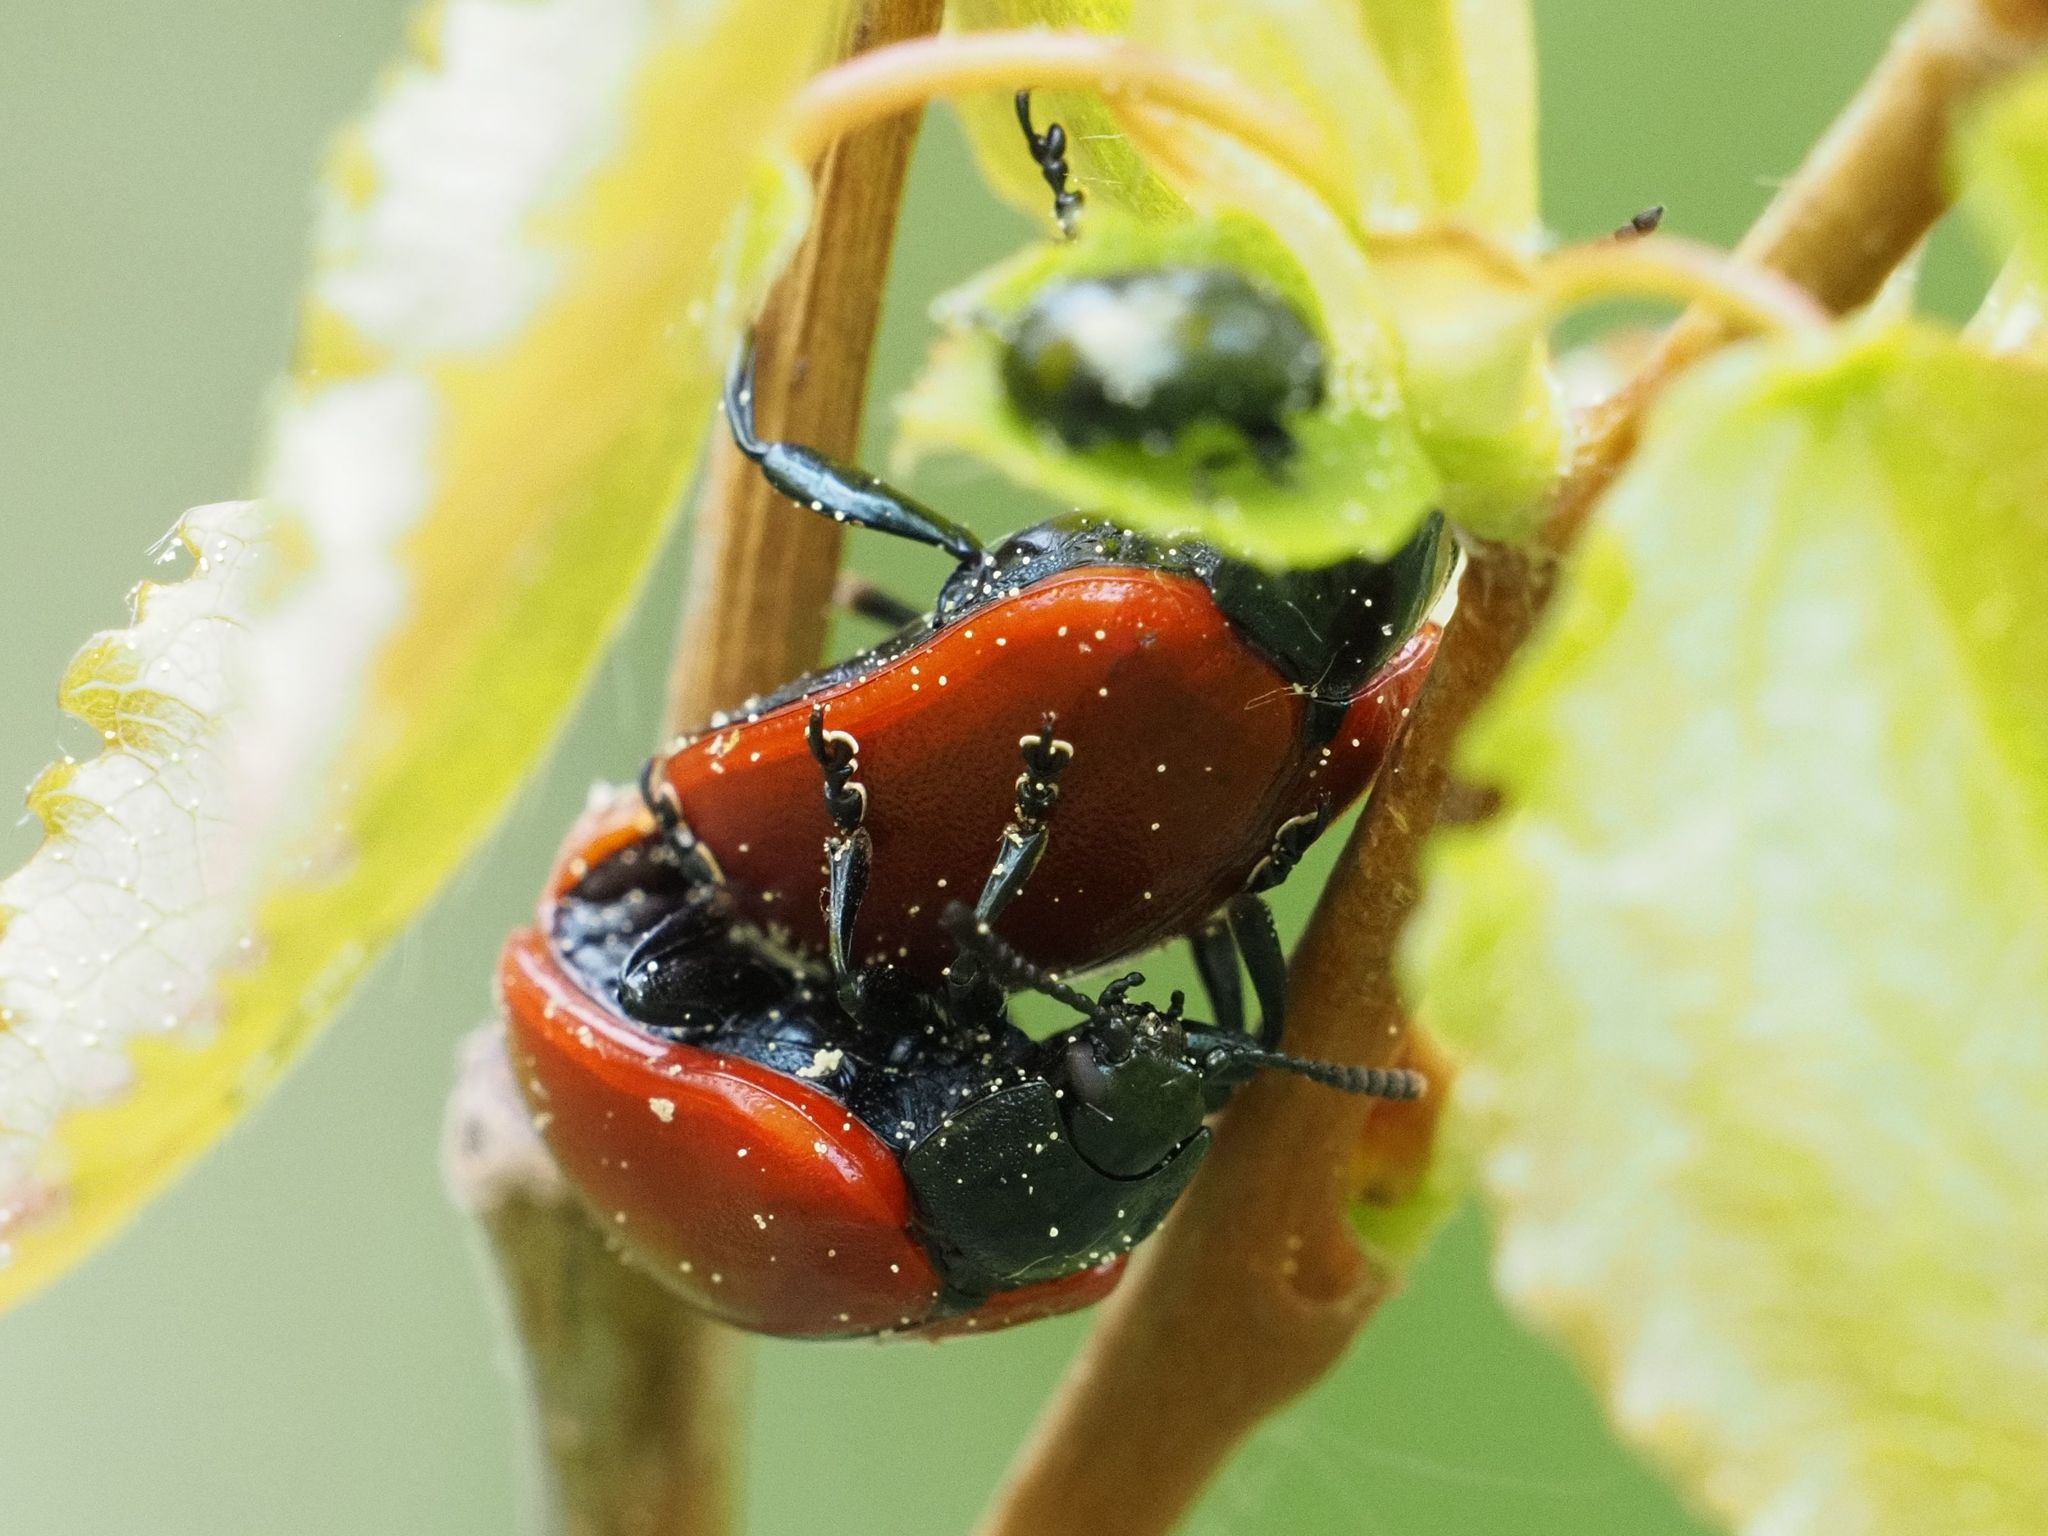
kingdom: Animalia
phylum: Arthropoda
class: Insecta
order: Coleoptera
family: Chrysomelidae
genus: Chrysomela
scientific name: Chrysomela populi
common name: Red poplar leaf beetle
